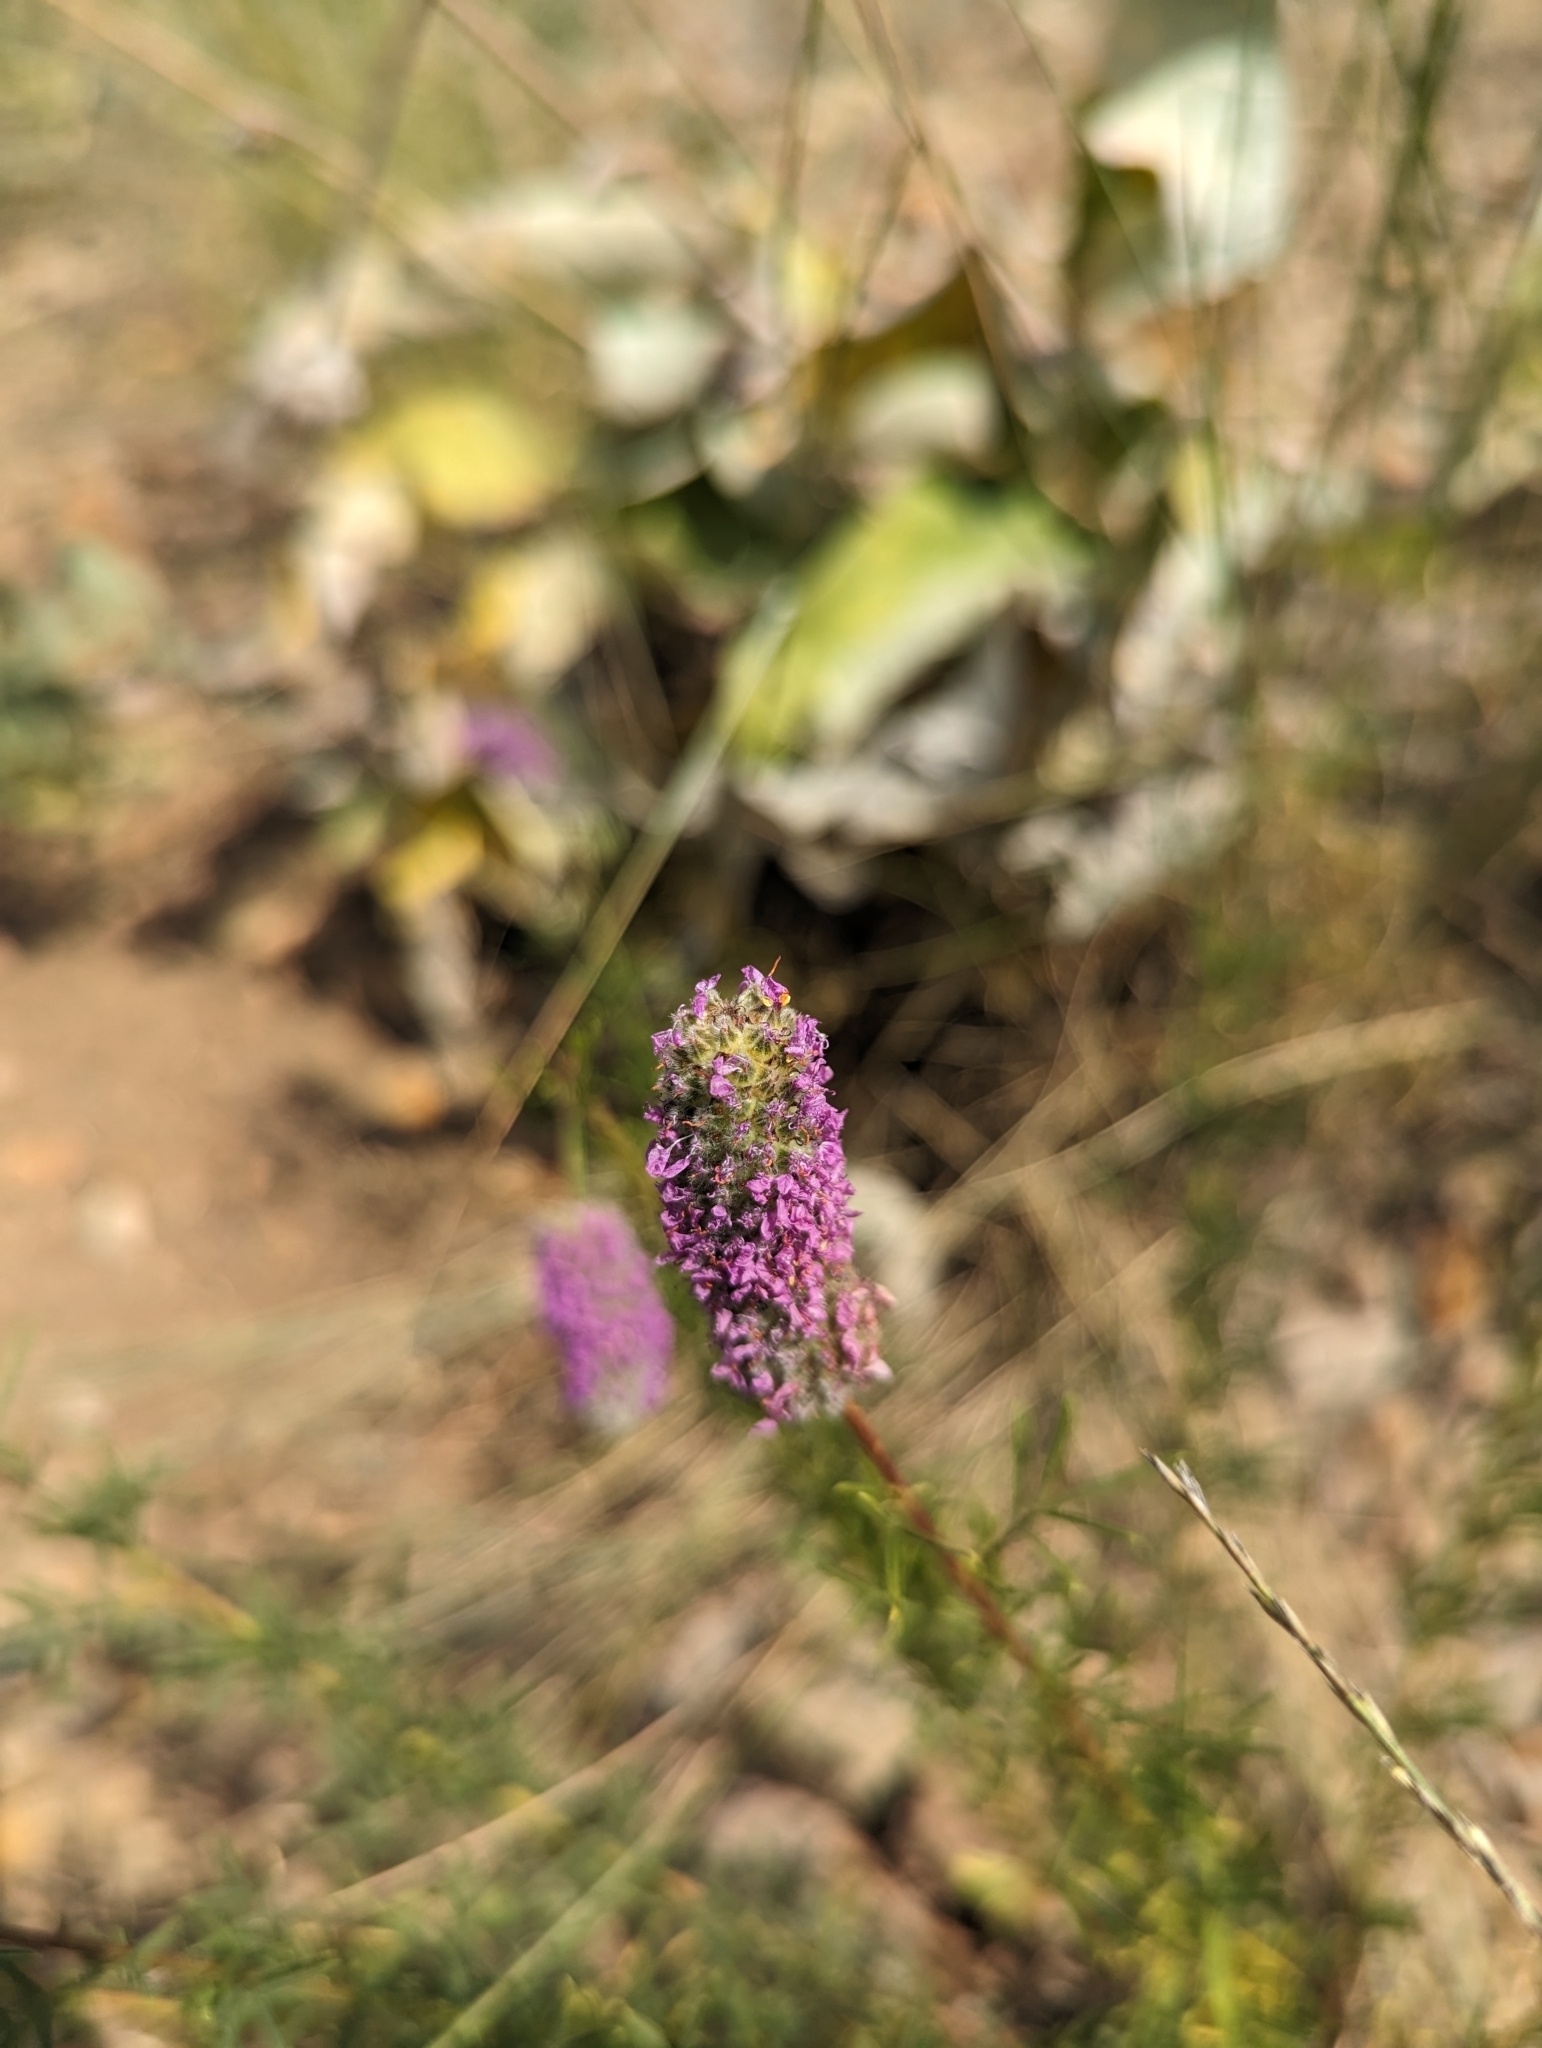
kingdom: Plantae
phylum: Tracheophyta
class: Magnoliopsida
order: Fabales
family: Fabaceae
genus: Dalea
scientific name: Dalea purpurea
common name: Purple prairie-clover
